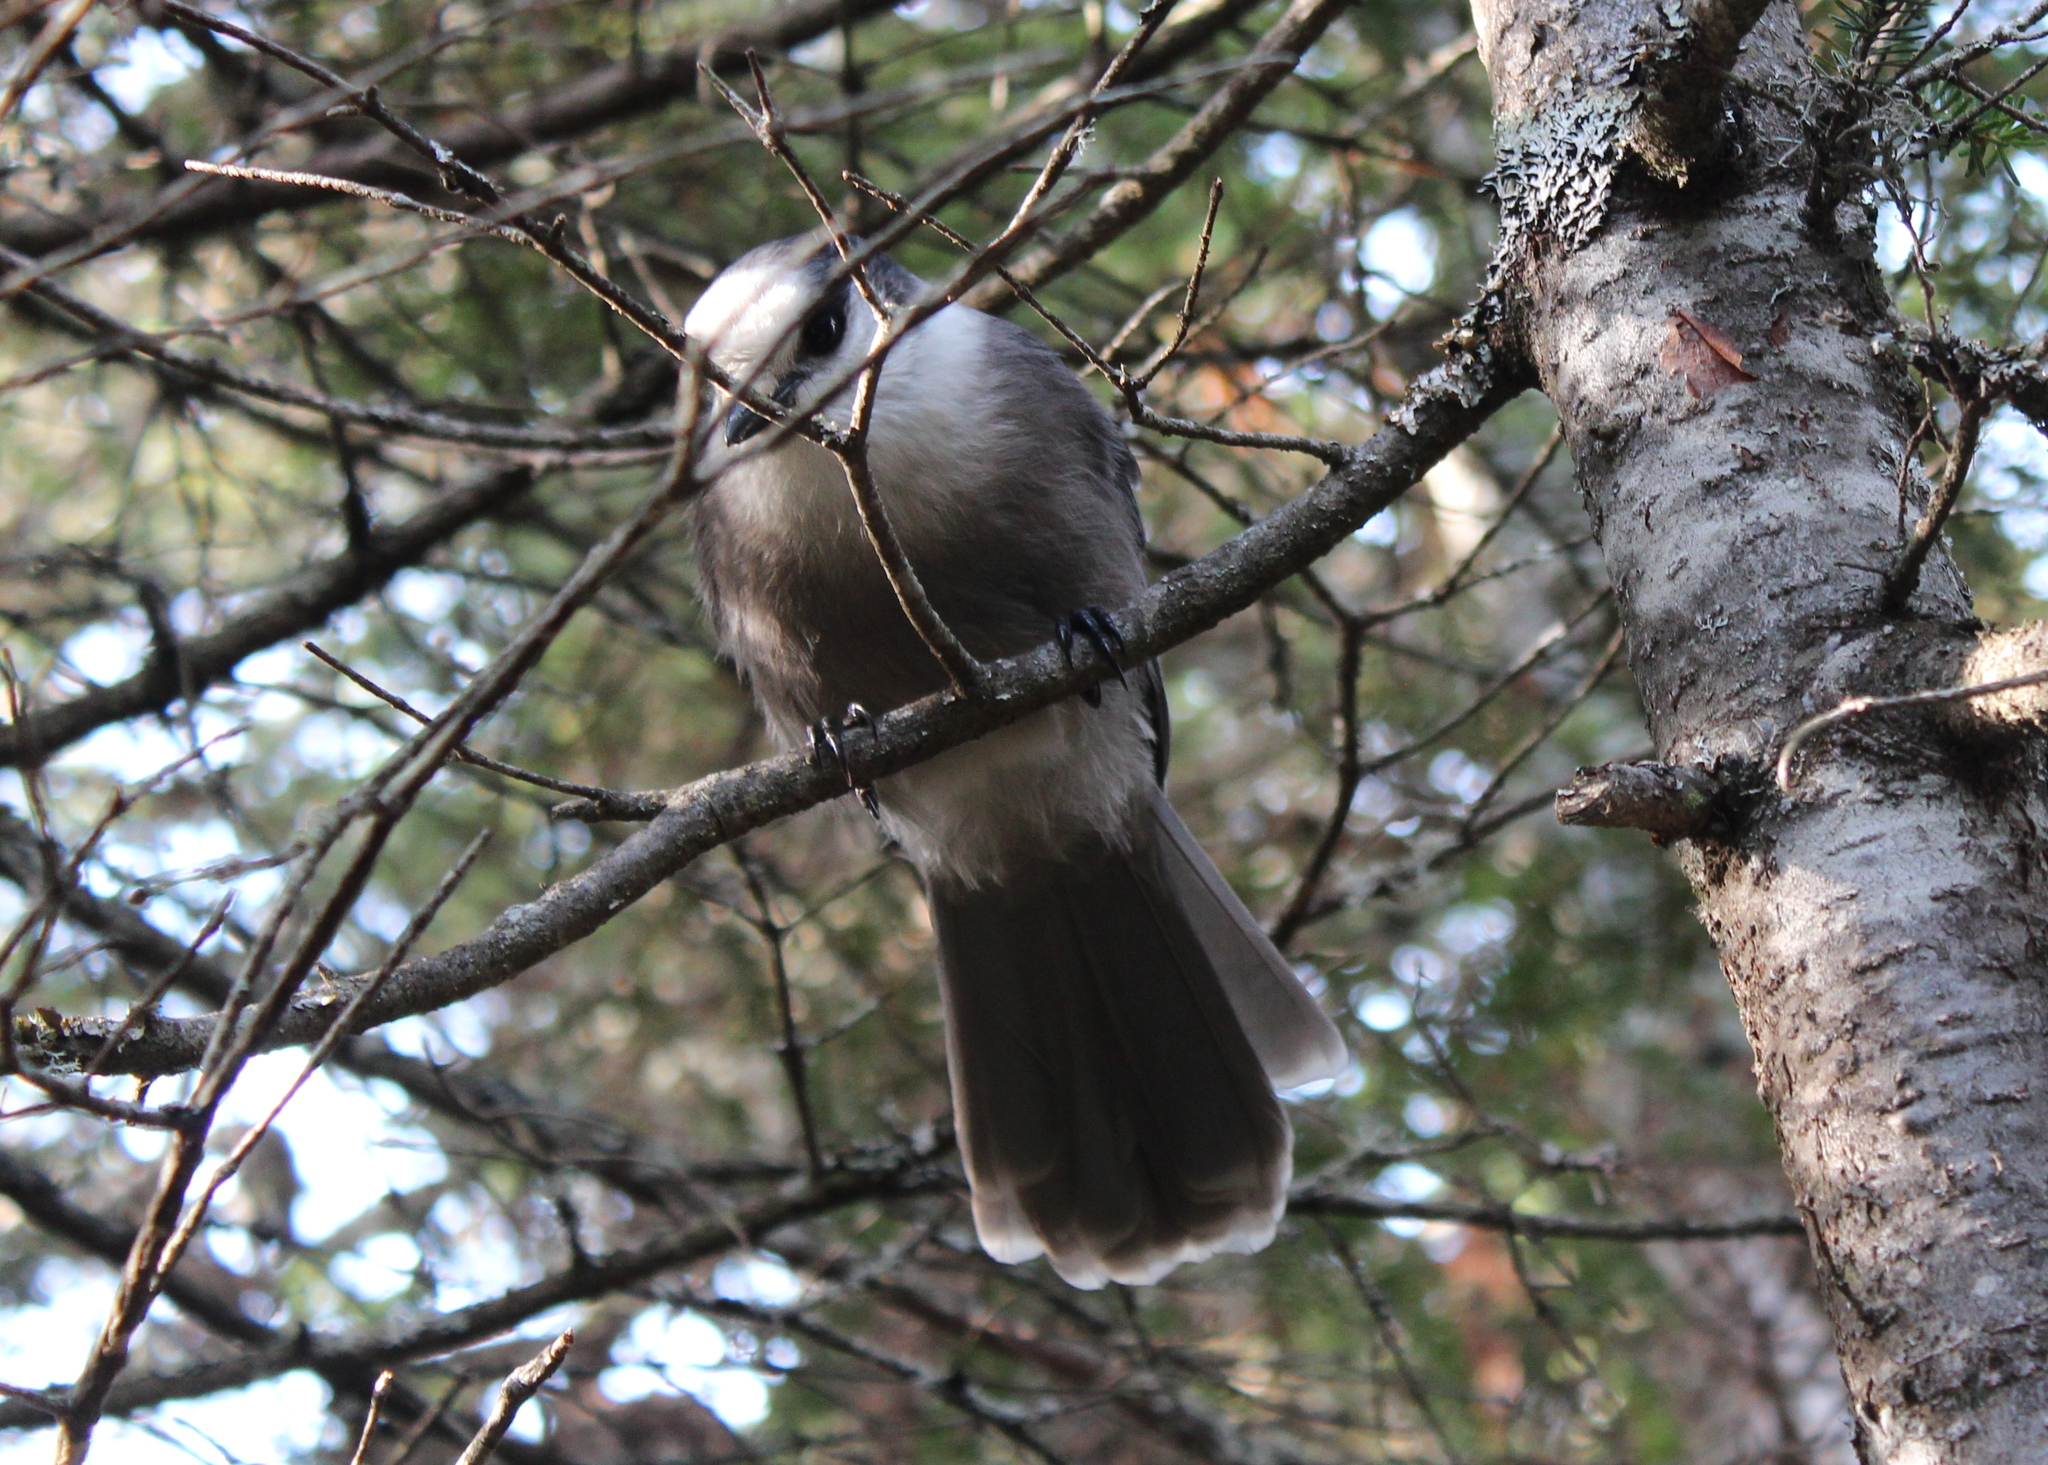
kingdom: Animalia
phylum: Chordata
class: Aves
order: Passeriformes
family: Corvidae
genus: Perisoreus
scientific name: Perisoreus canadensis
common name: Gray jay
